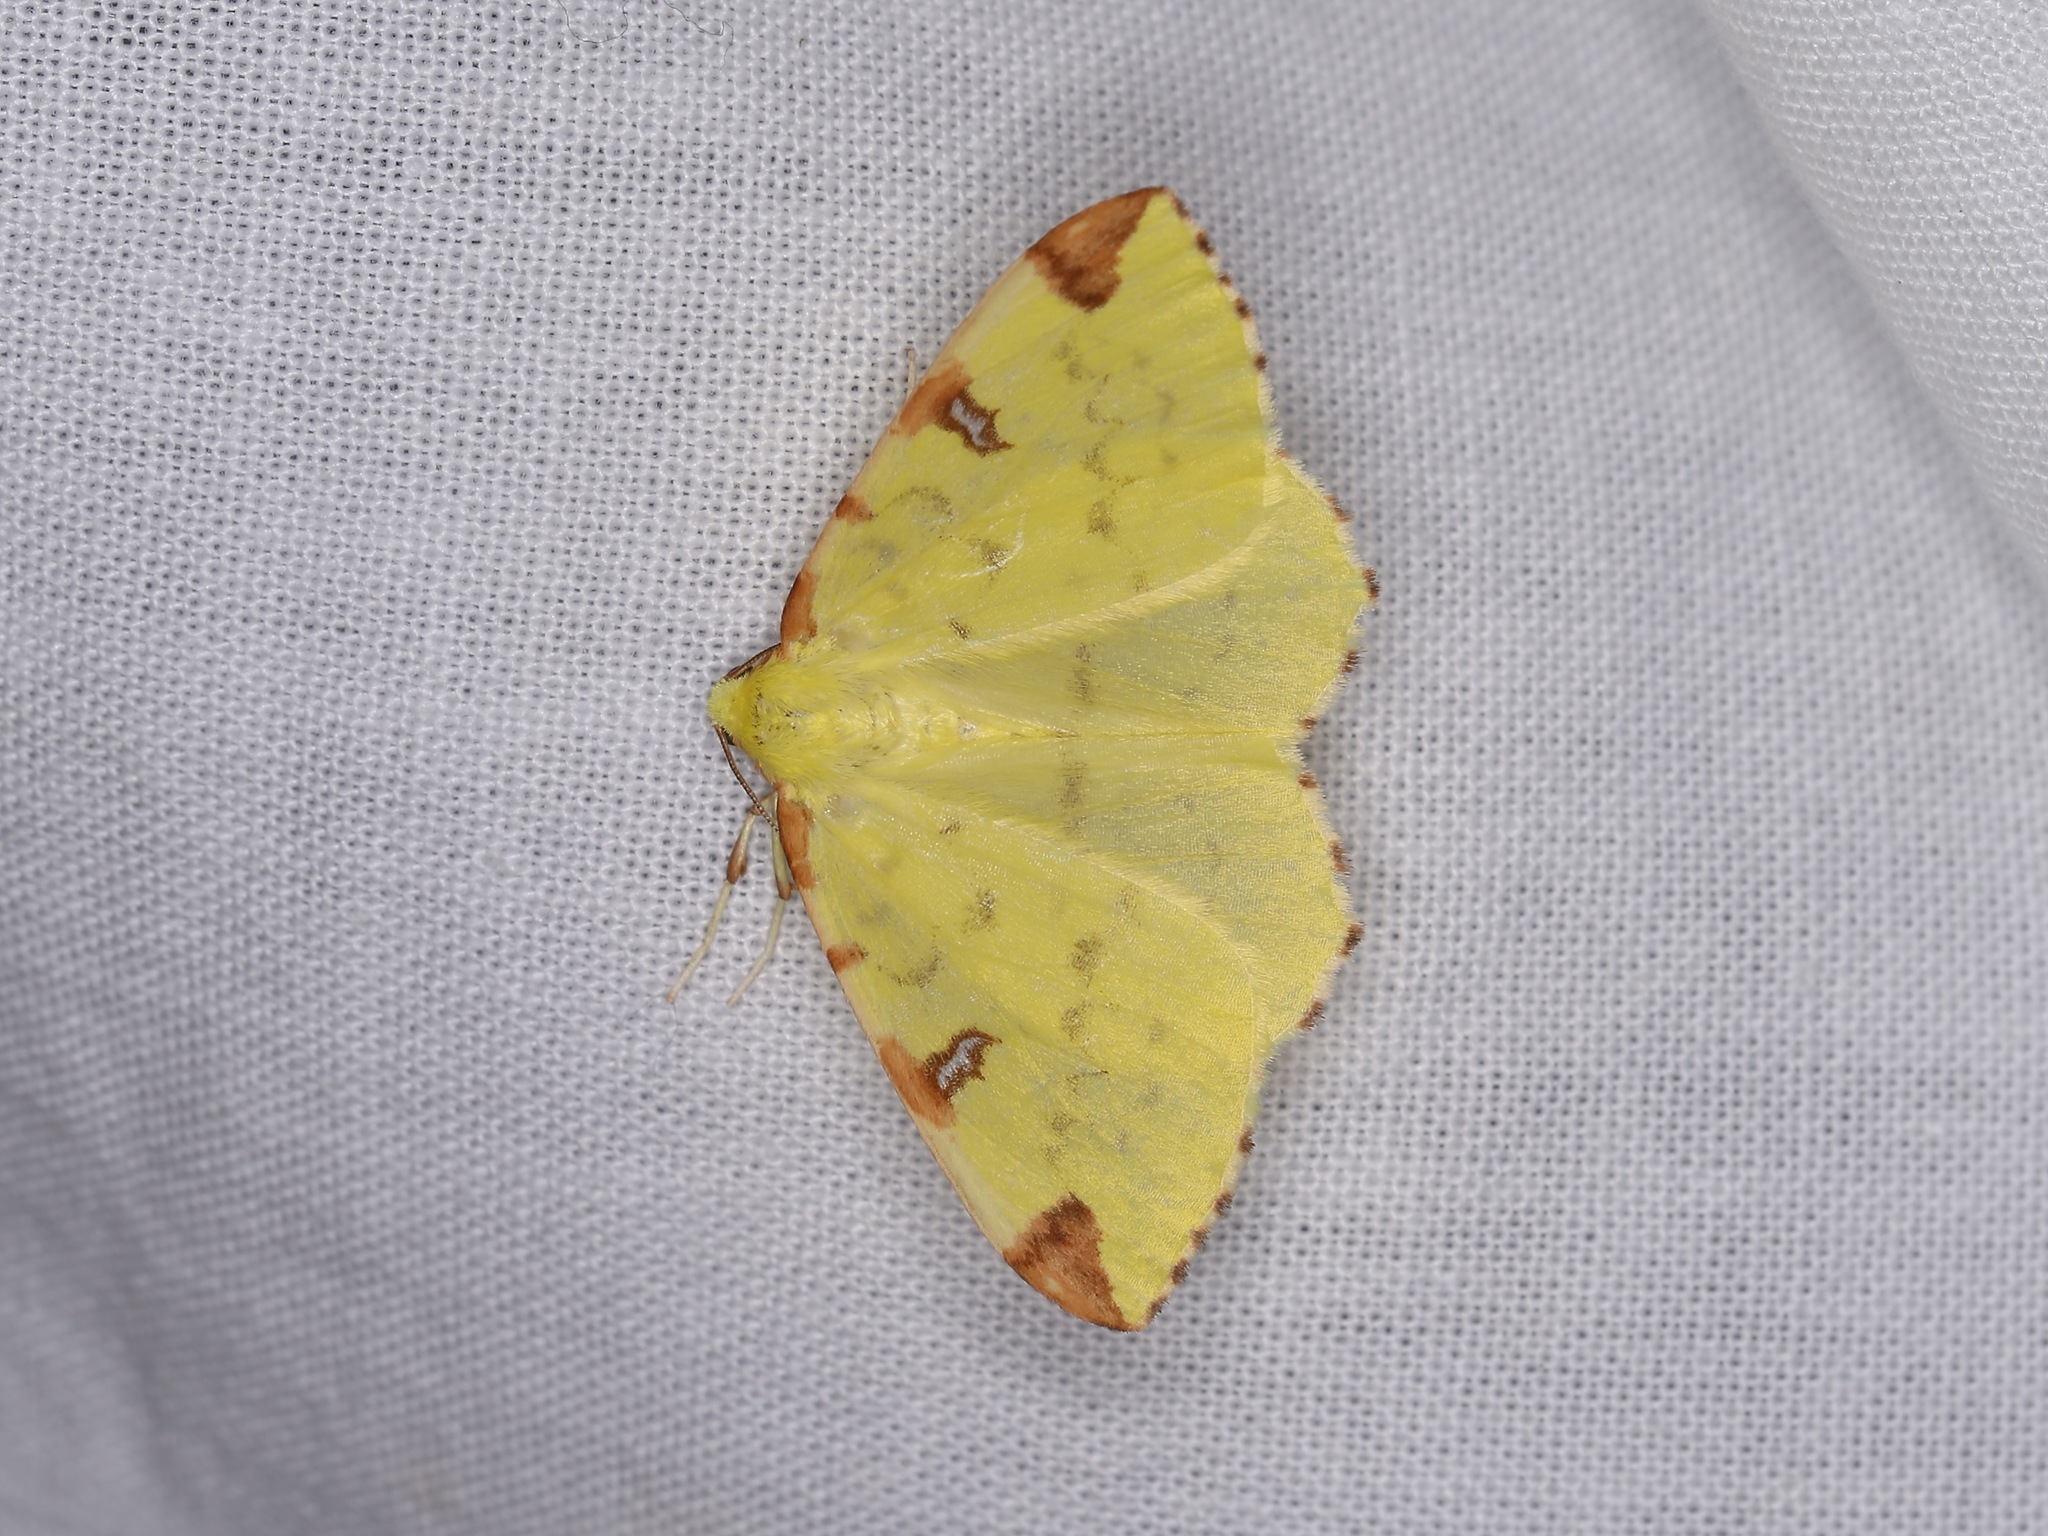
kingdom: Animalia
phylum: Arthropoda
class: Insecta
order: Lepidoptera
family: Geometridae
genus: Opisthograptis
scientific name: Opisthograptis luteolata
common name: Brimstone moth
